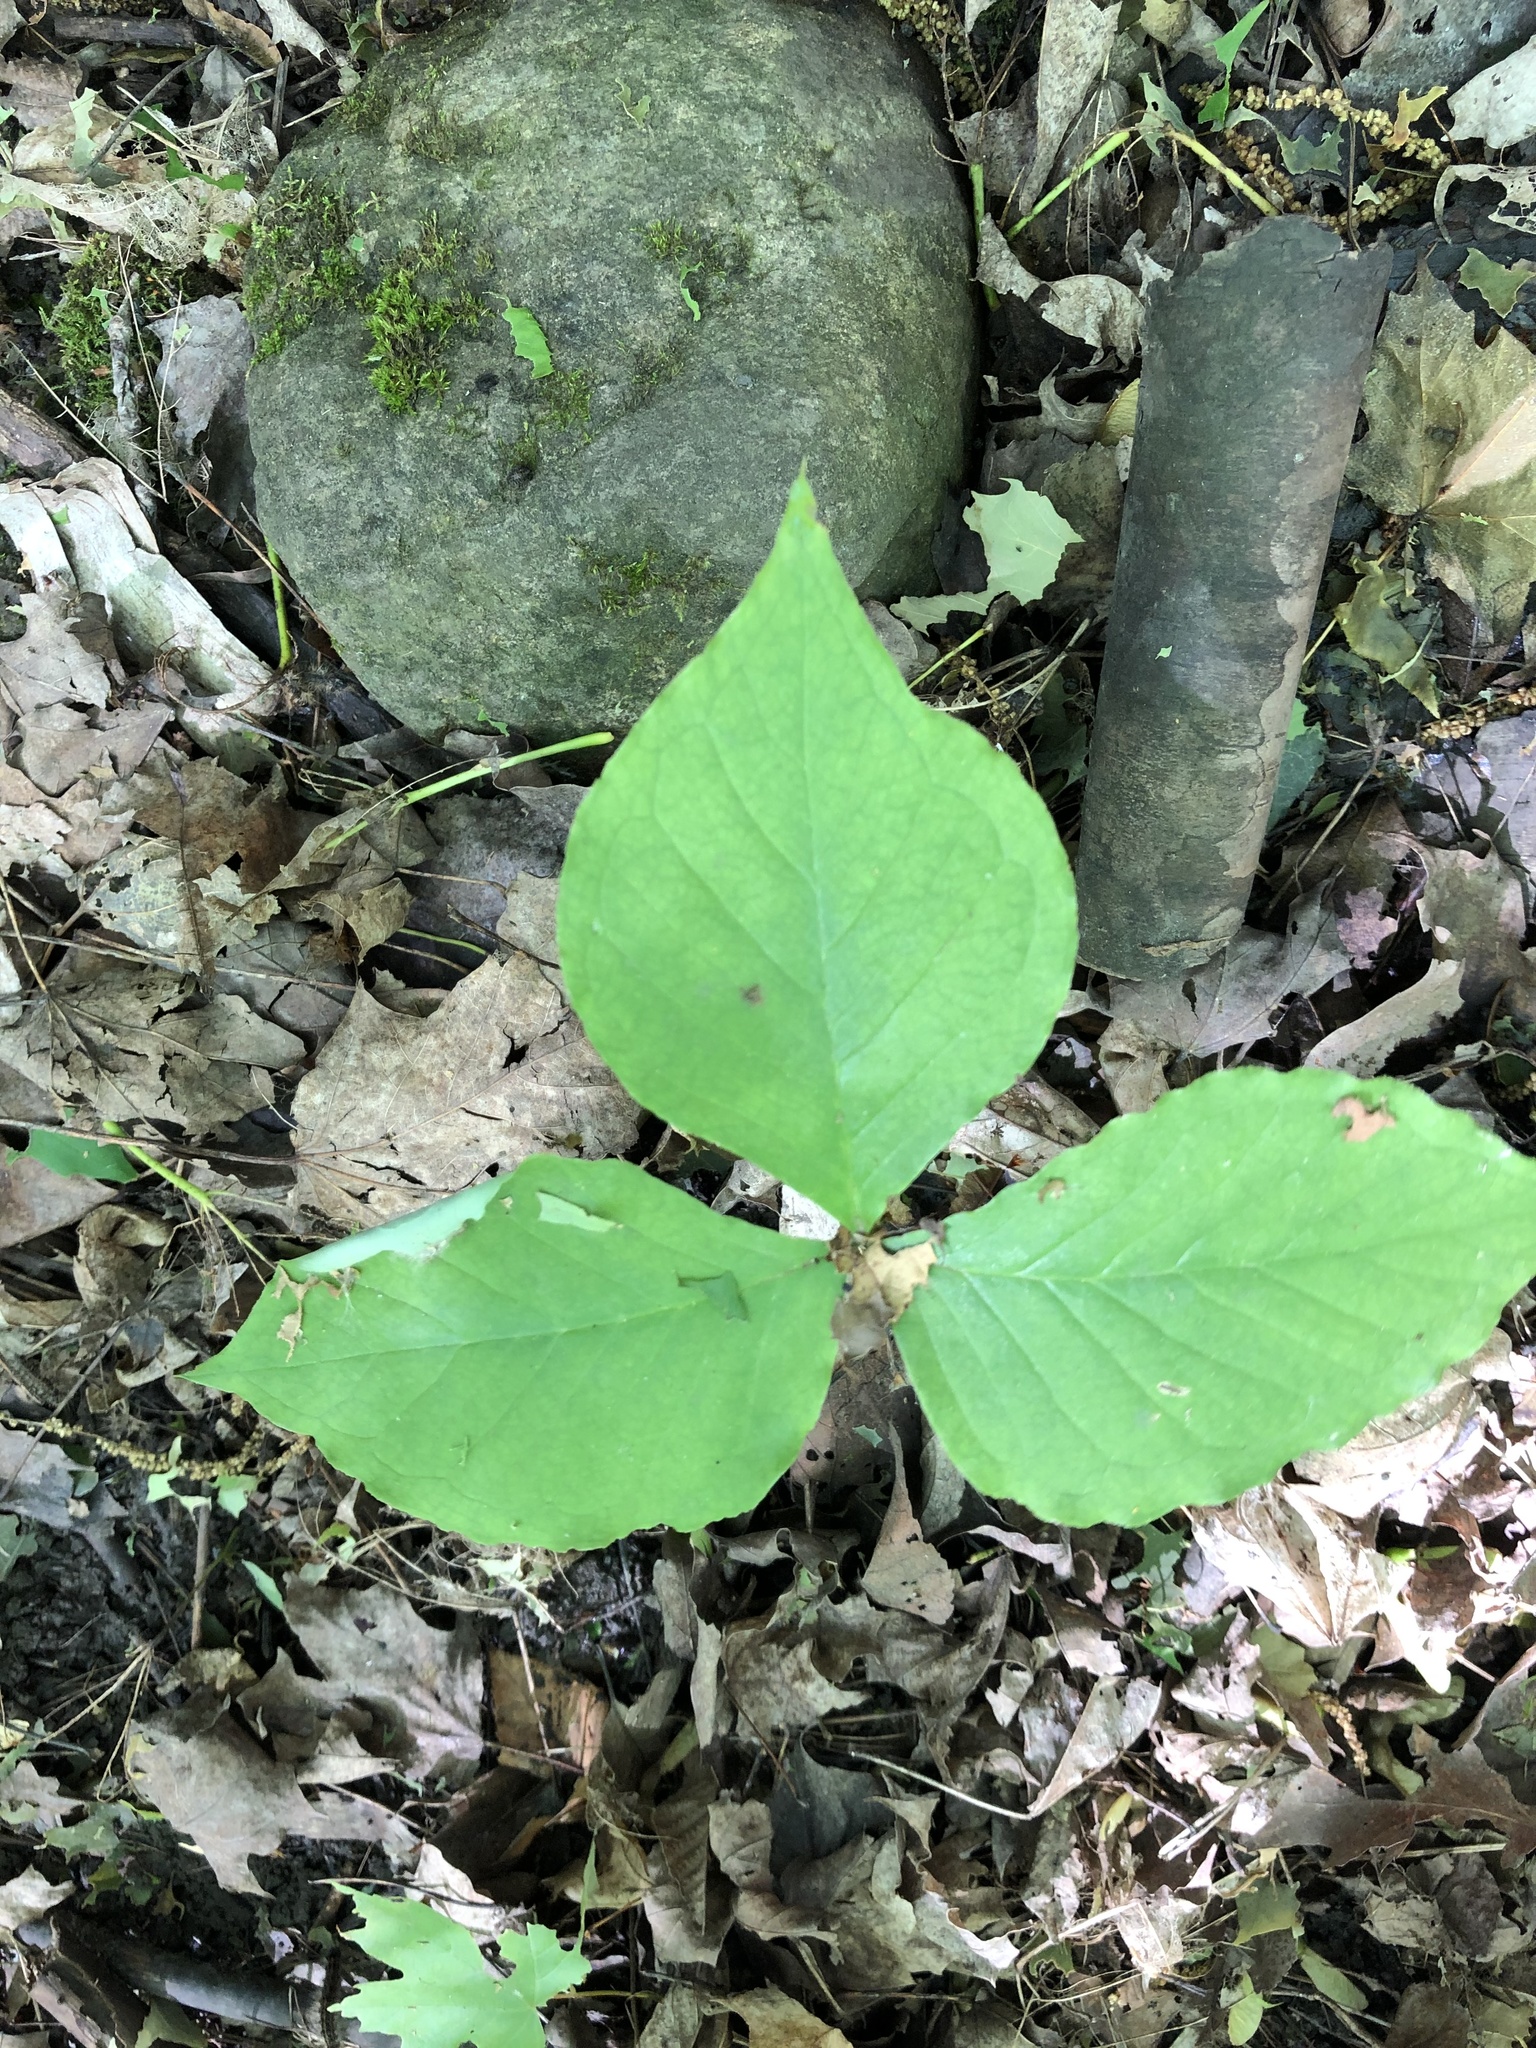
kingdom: Plantae
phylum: Tracheophyta
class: Liliopsida
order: Alismatales
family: Araceae
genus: Arisaema
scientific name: Arisaema triphyllum
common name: Jack-in-the-pulpit
